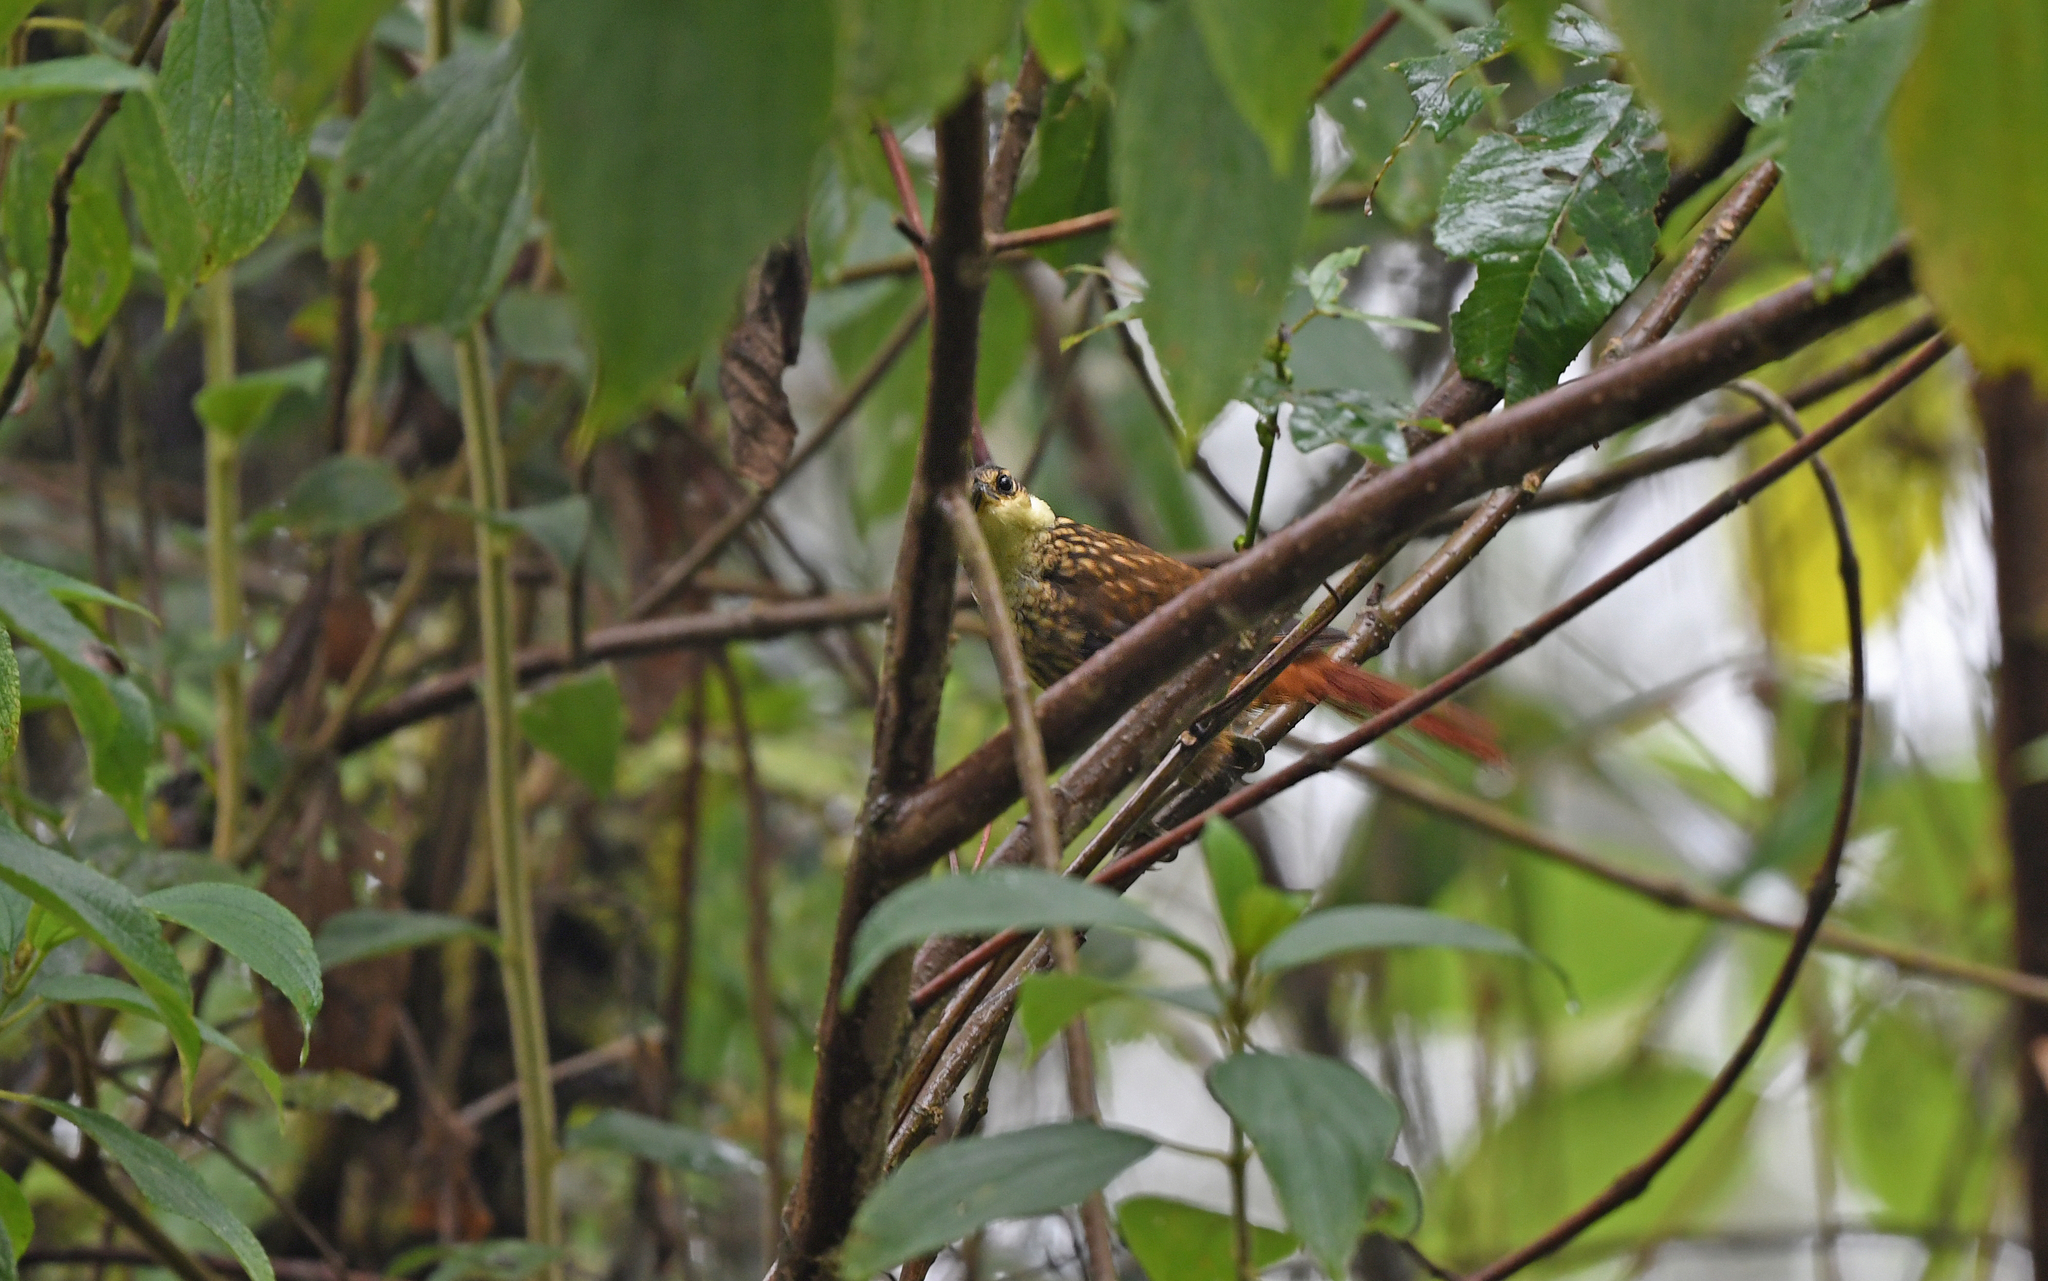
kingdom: Animalia
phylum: Chordata
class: Aves
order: Passeriformes
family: Furnariidae
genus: Pseudocolaptes
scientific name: Pseudocolaptes boissonneautii
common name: Streaked tuftedcheek
